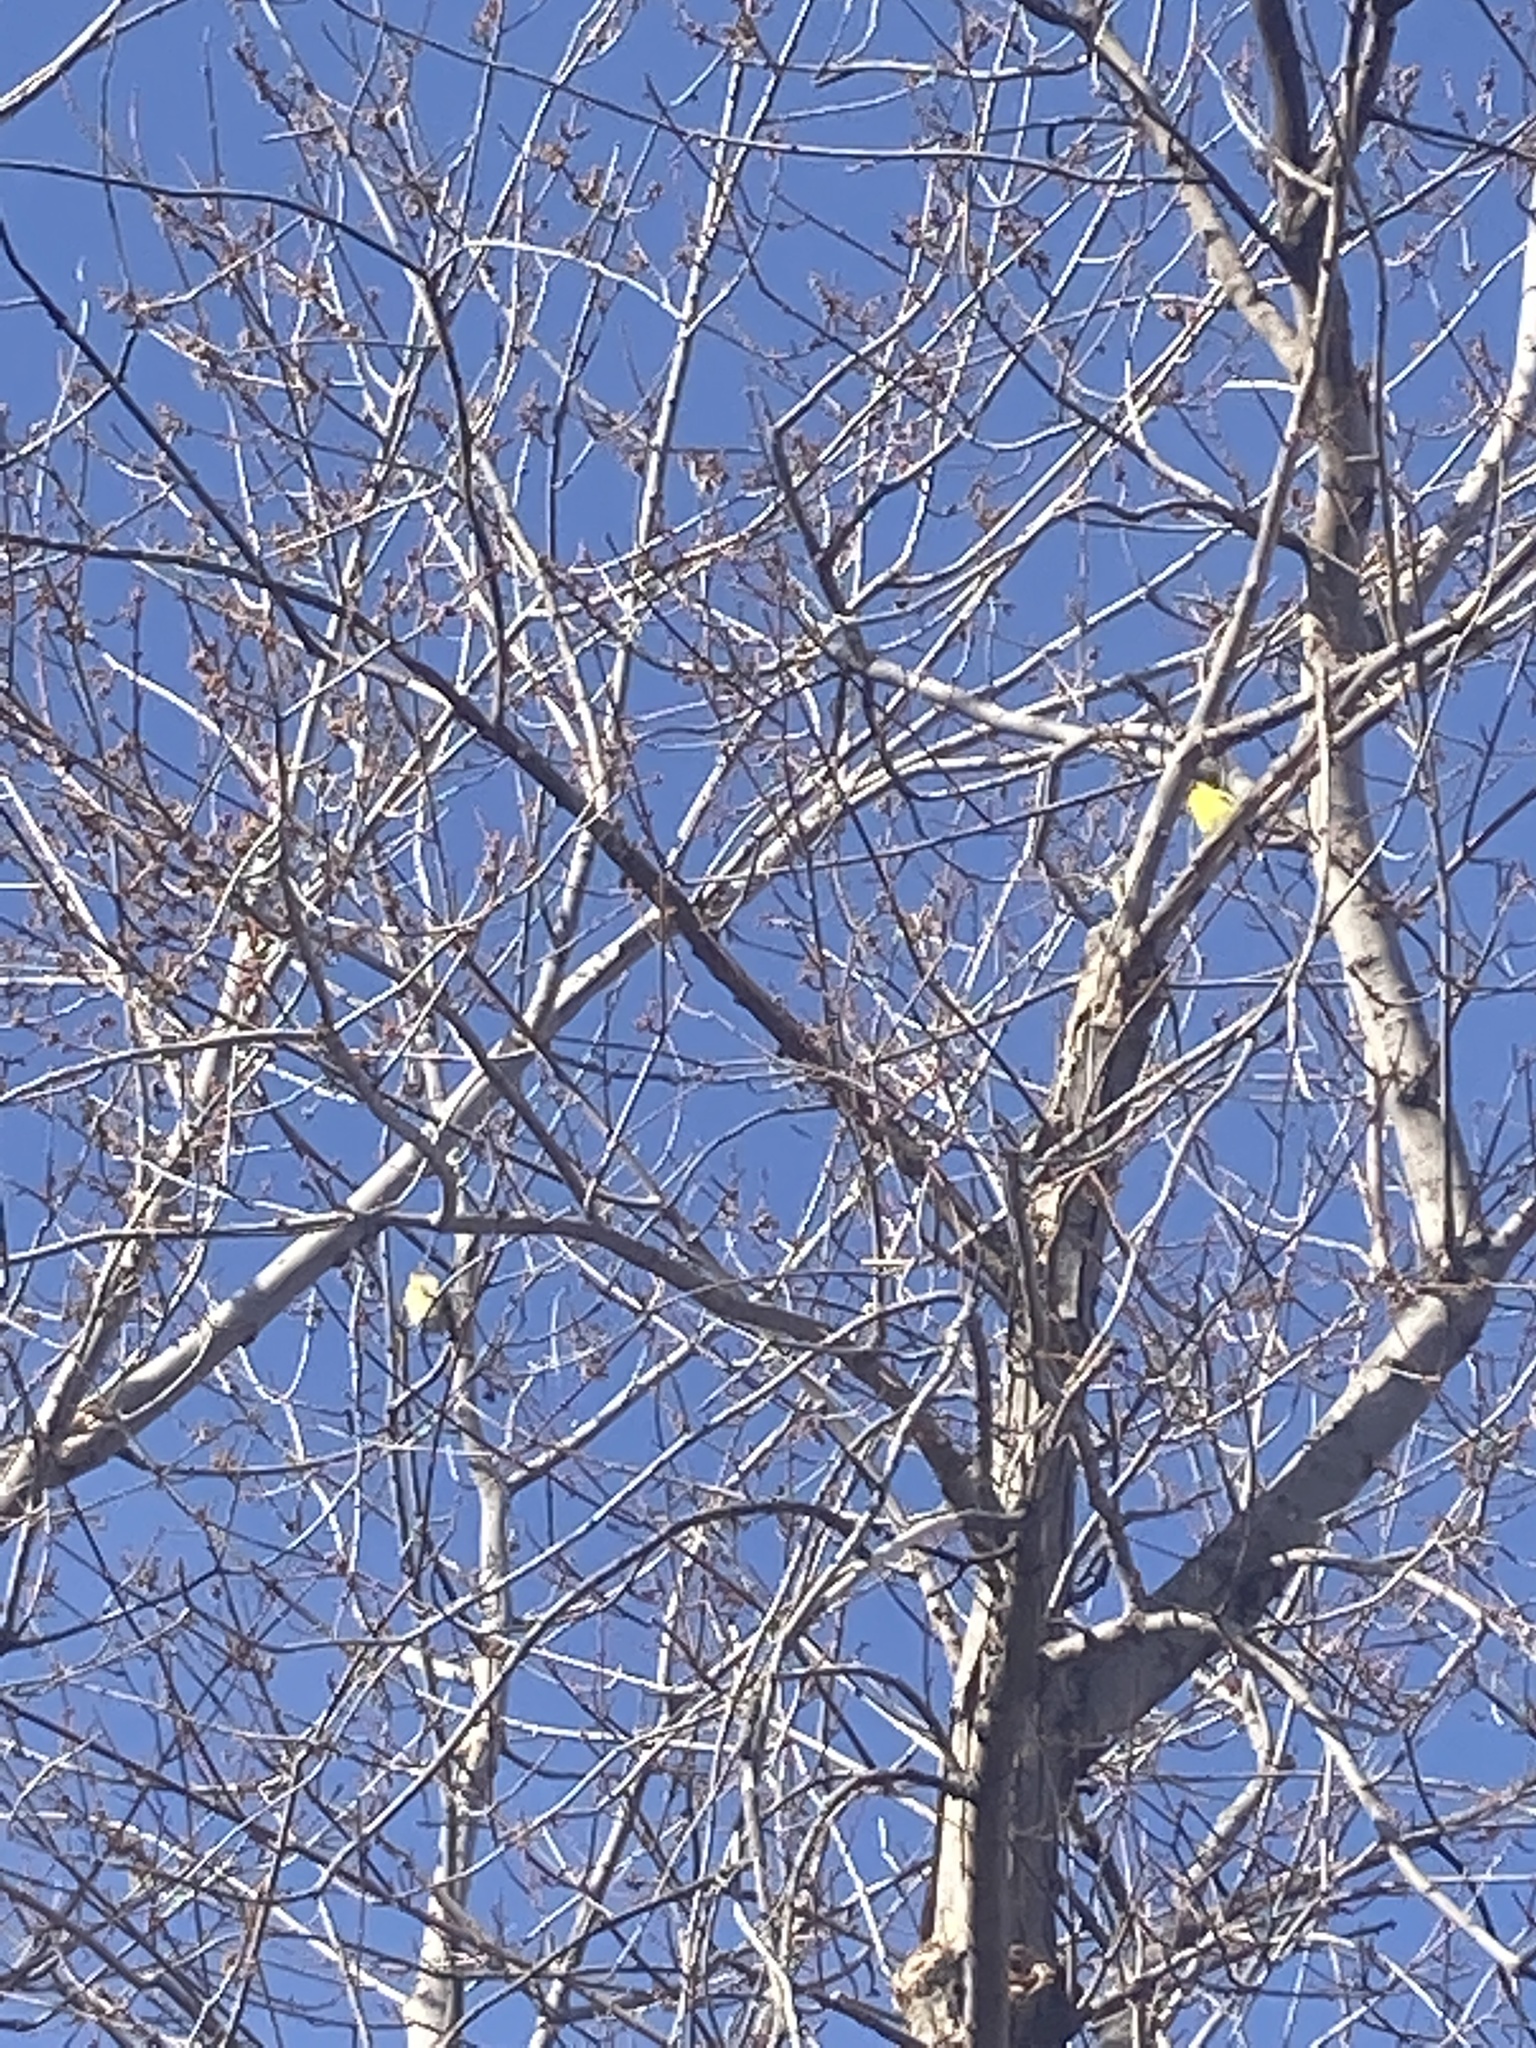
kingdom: Animalia
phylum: Chordata
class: Aves
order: Passeriformes
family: Fringillidae
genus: Spinus
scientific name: Spinus tristis
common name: American goldfinch
